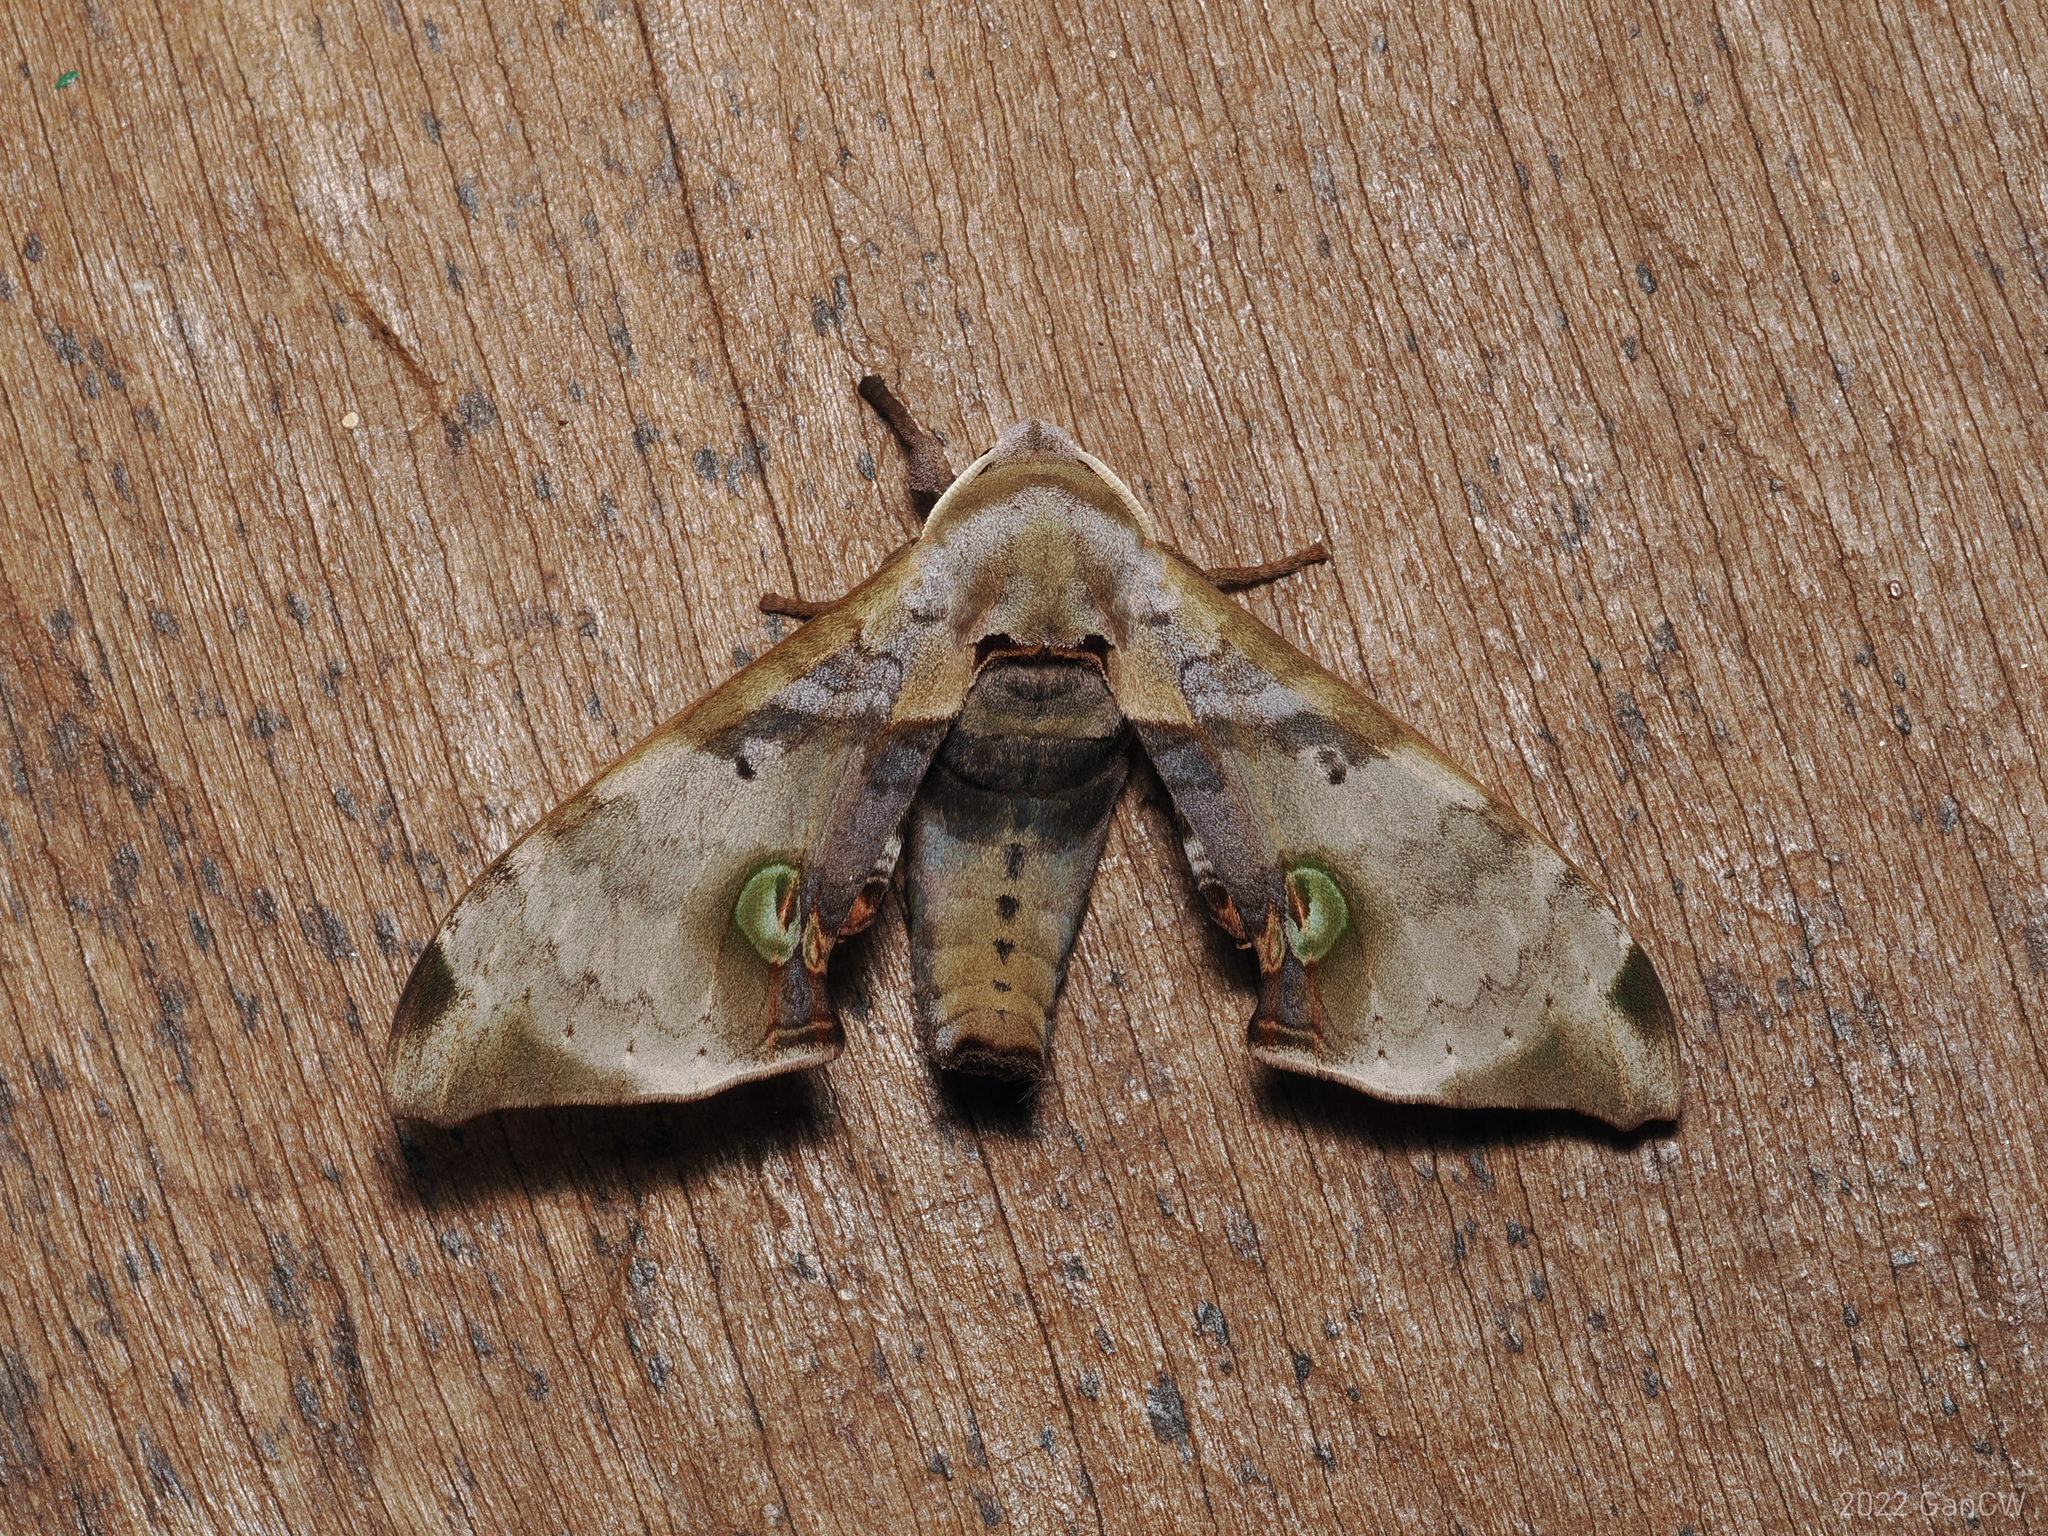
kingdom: Animalia
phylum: Arthropoda
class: Insecta
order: Lepidoptera
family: Sphingidae
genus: Daphnusa
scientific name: Daphnusa fruhstorferi
